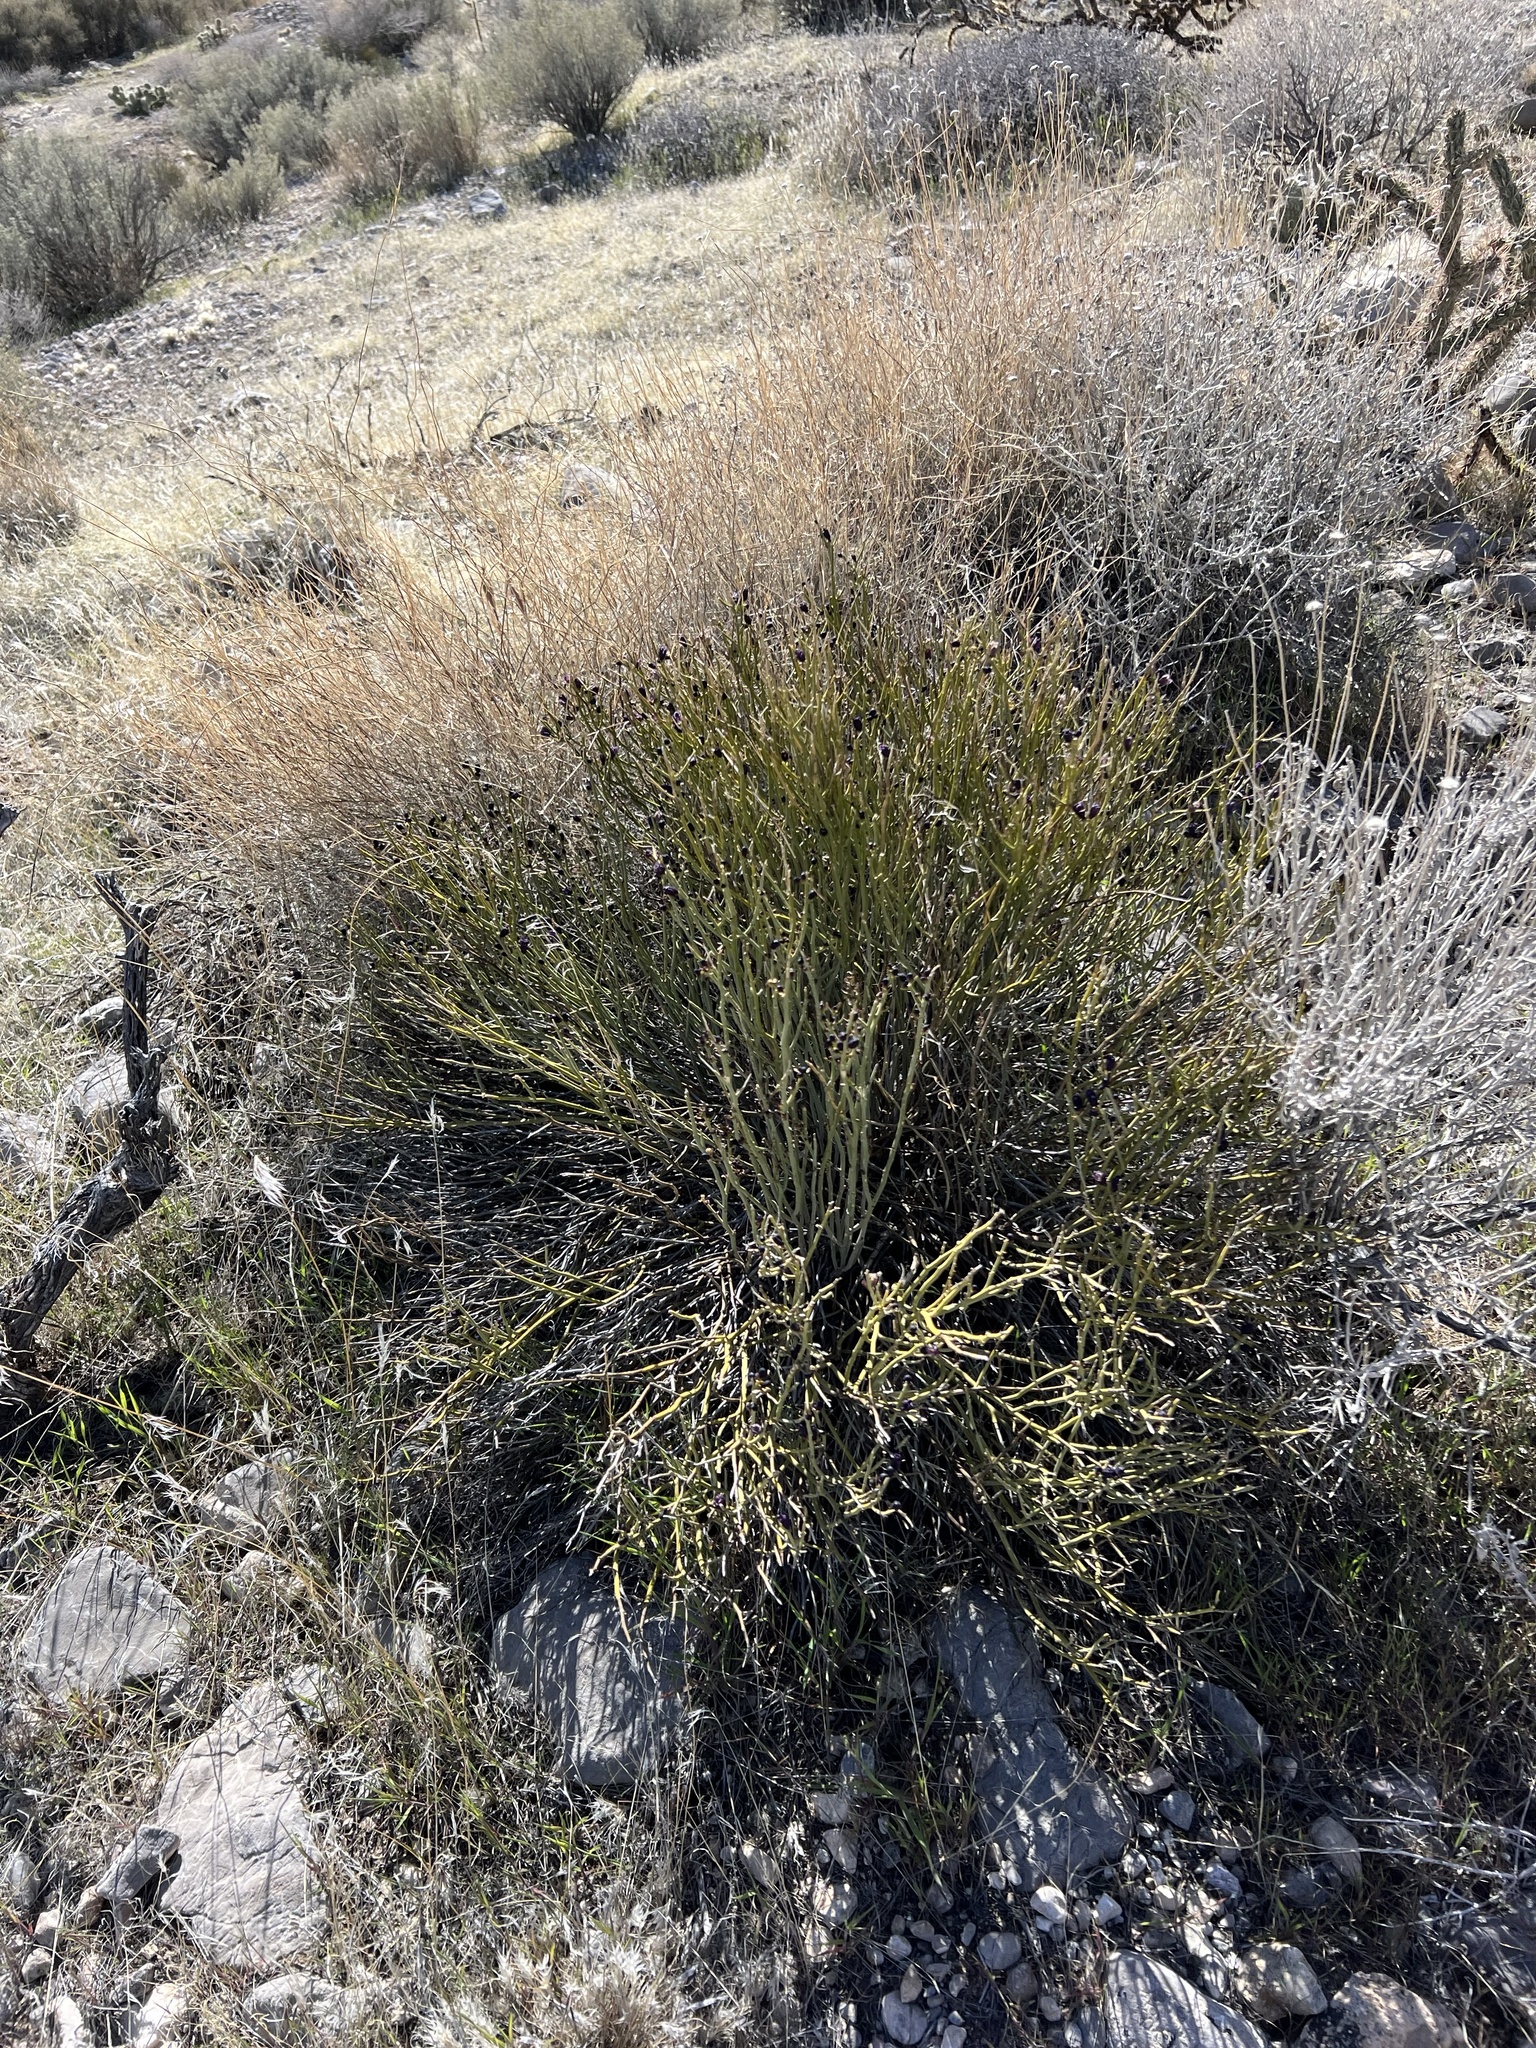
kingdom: Plantae
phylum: Tracheophyta
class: Magnoliopsida
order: Sapindales
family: Rutaceae
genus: Thamnosma
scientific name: Thamnosma montana
